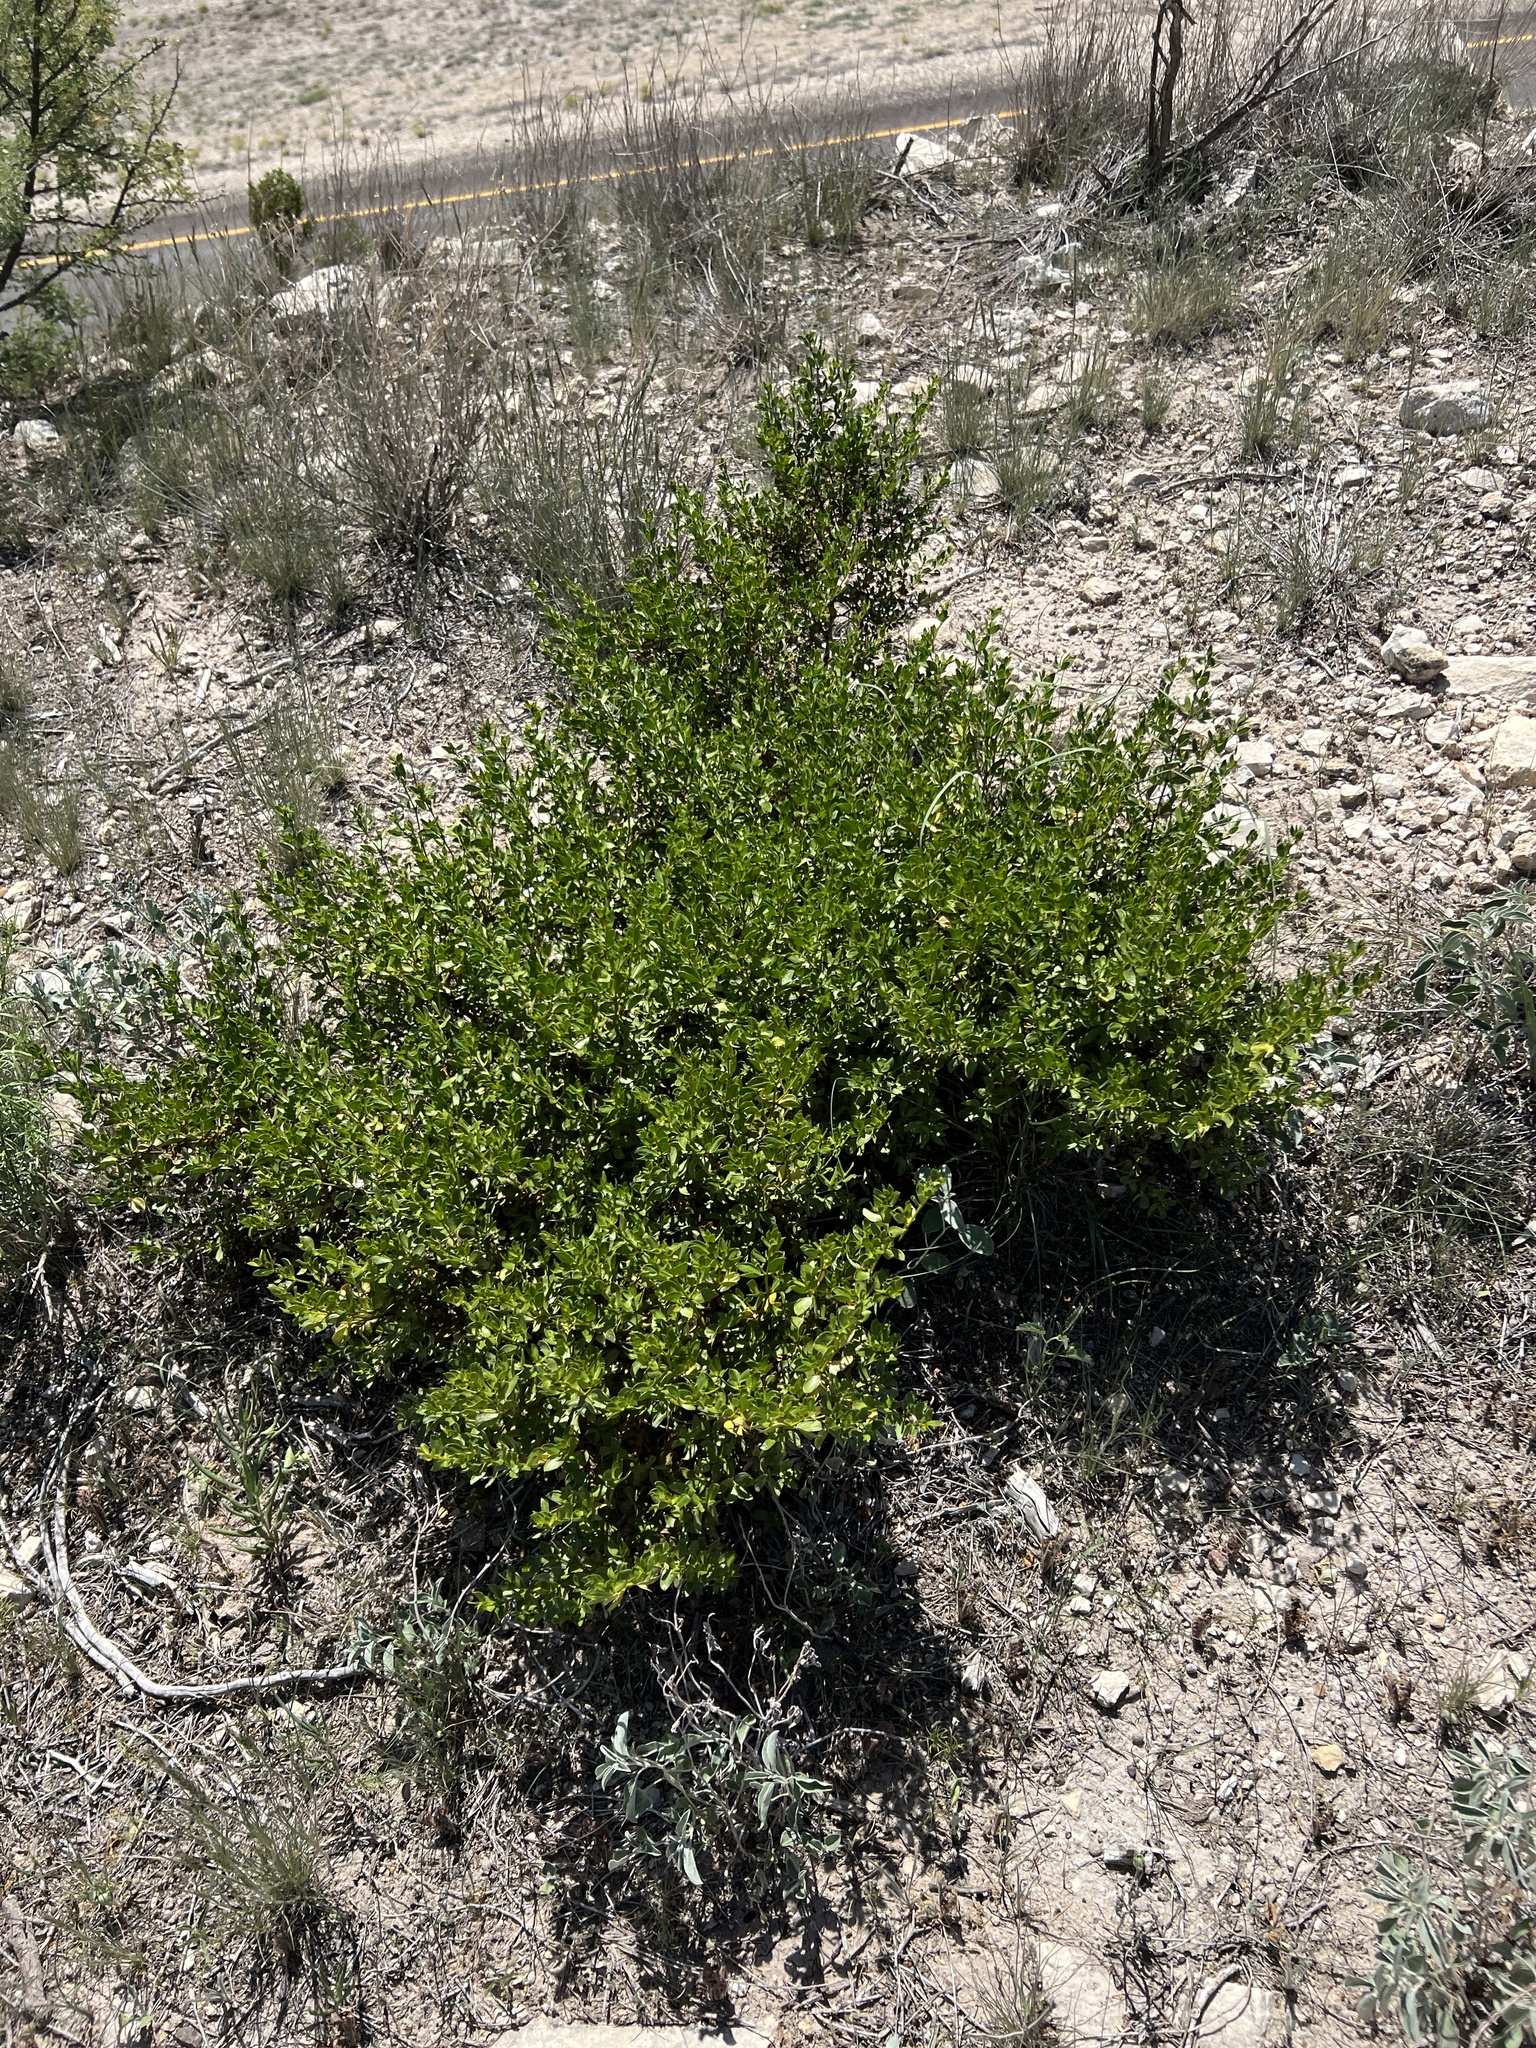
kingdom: Plantae
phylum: Tracheophyta
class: Magnoliopsida
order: Zygophyllales
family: Zygophyllaceae
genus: Larrea
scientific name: Larrea tridentata
